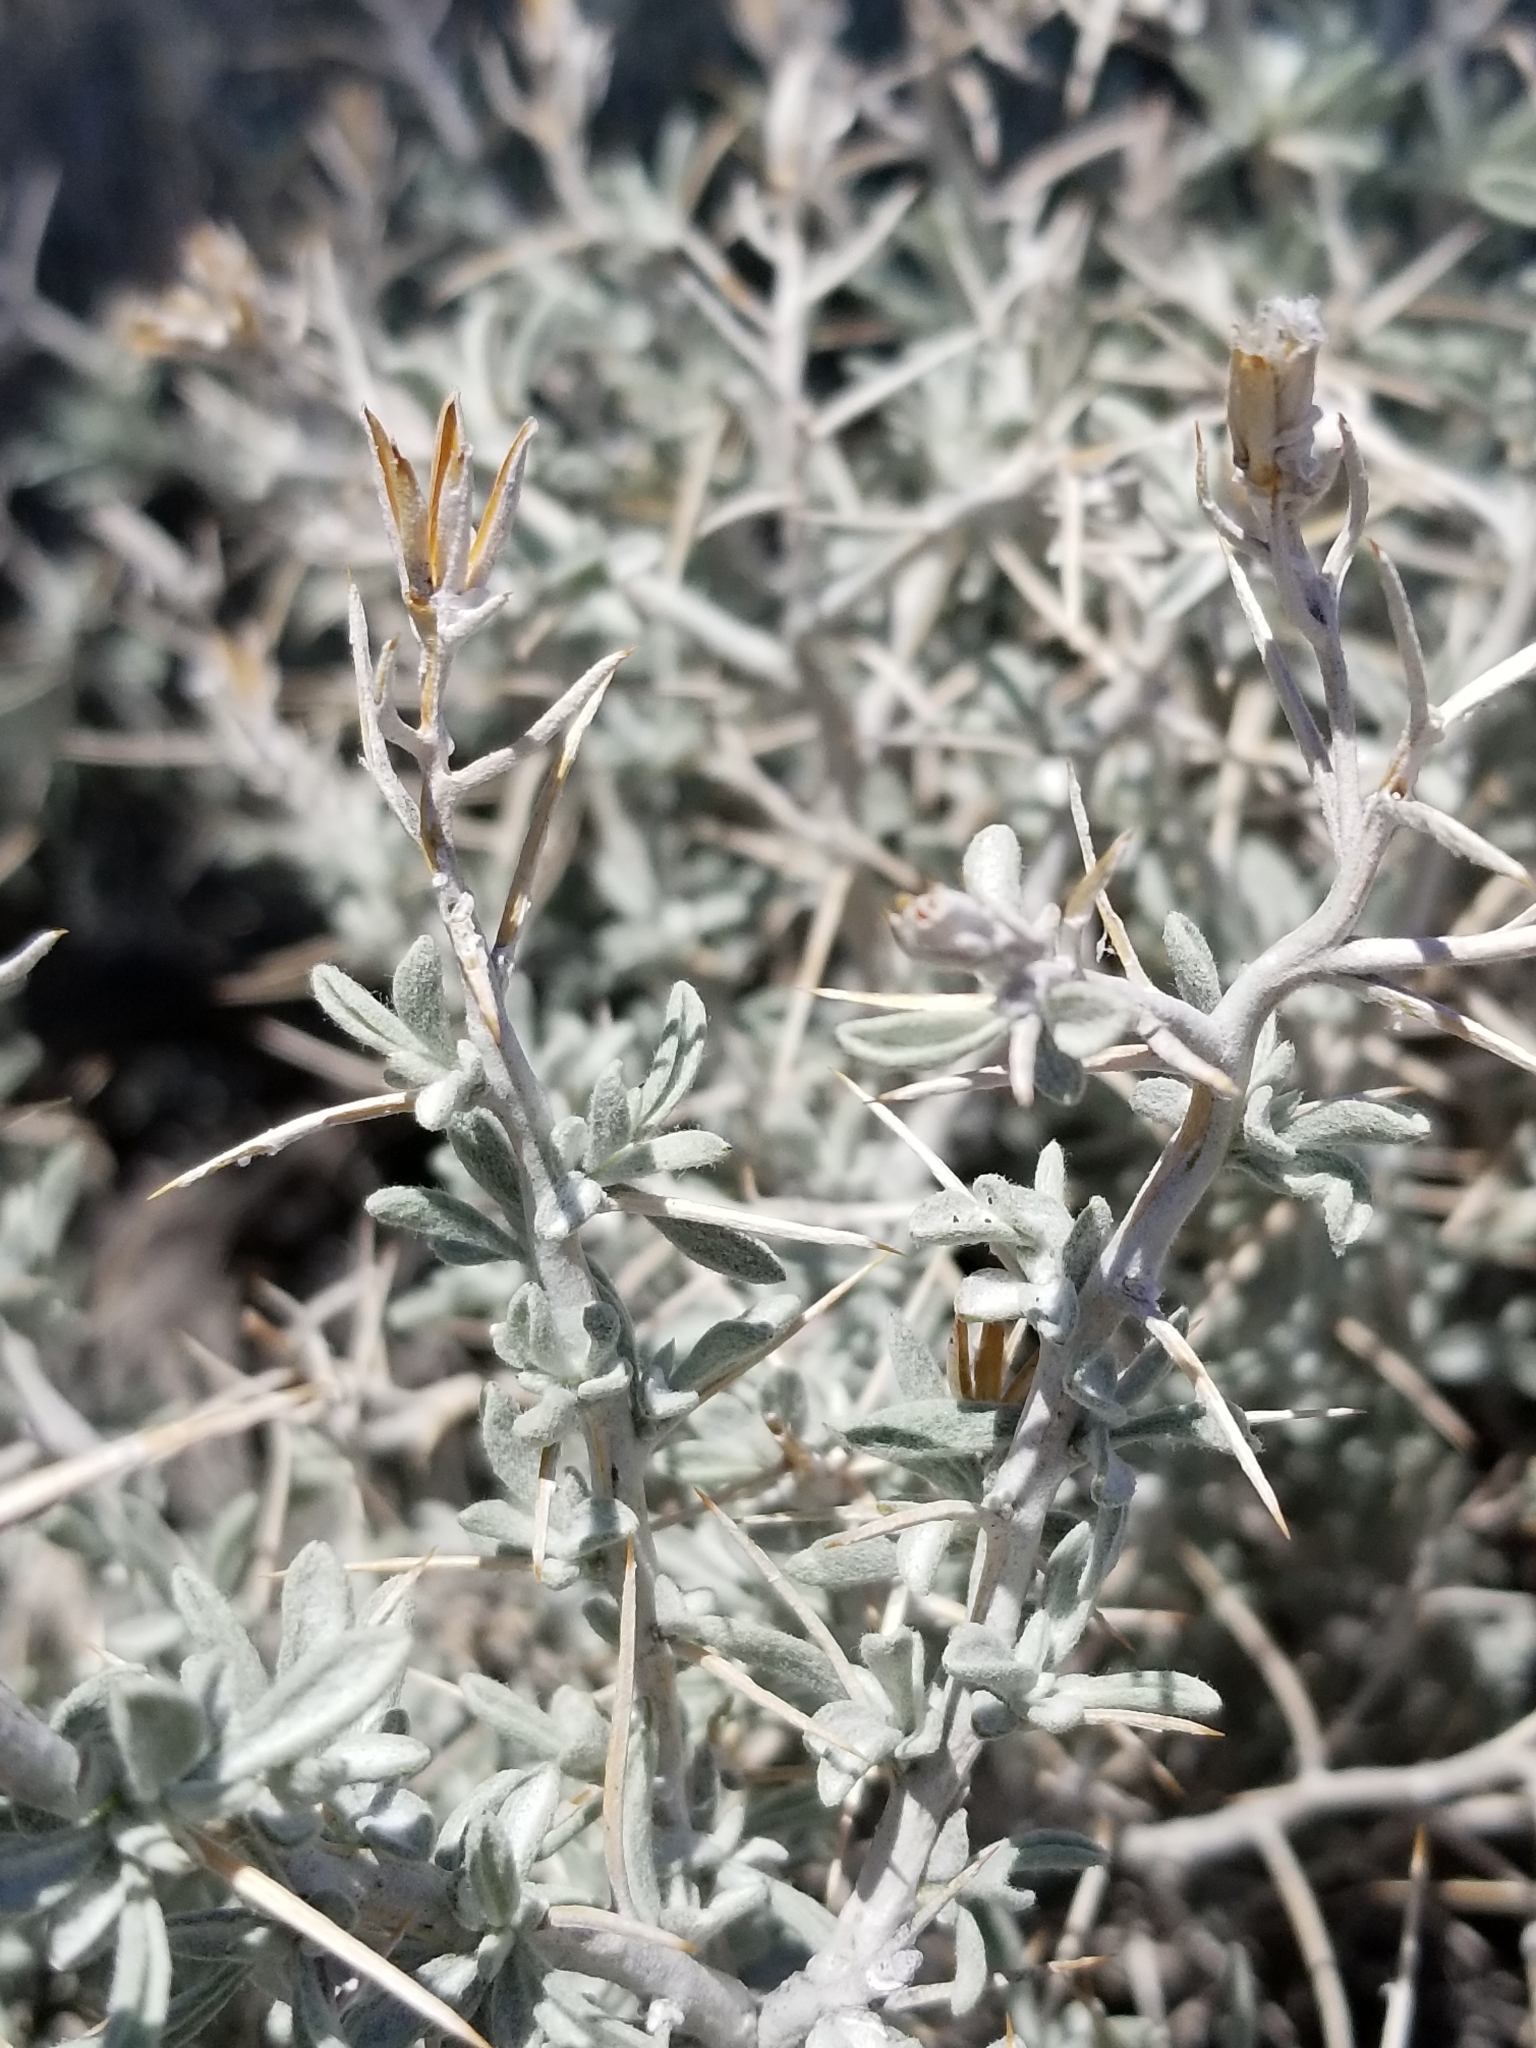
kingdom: Plantae
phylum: Tracheophyta
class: Magnoliopsida
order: Asterales
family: Asteraceae
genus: Tetradymia
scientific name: Tetradymia stenolepis
